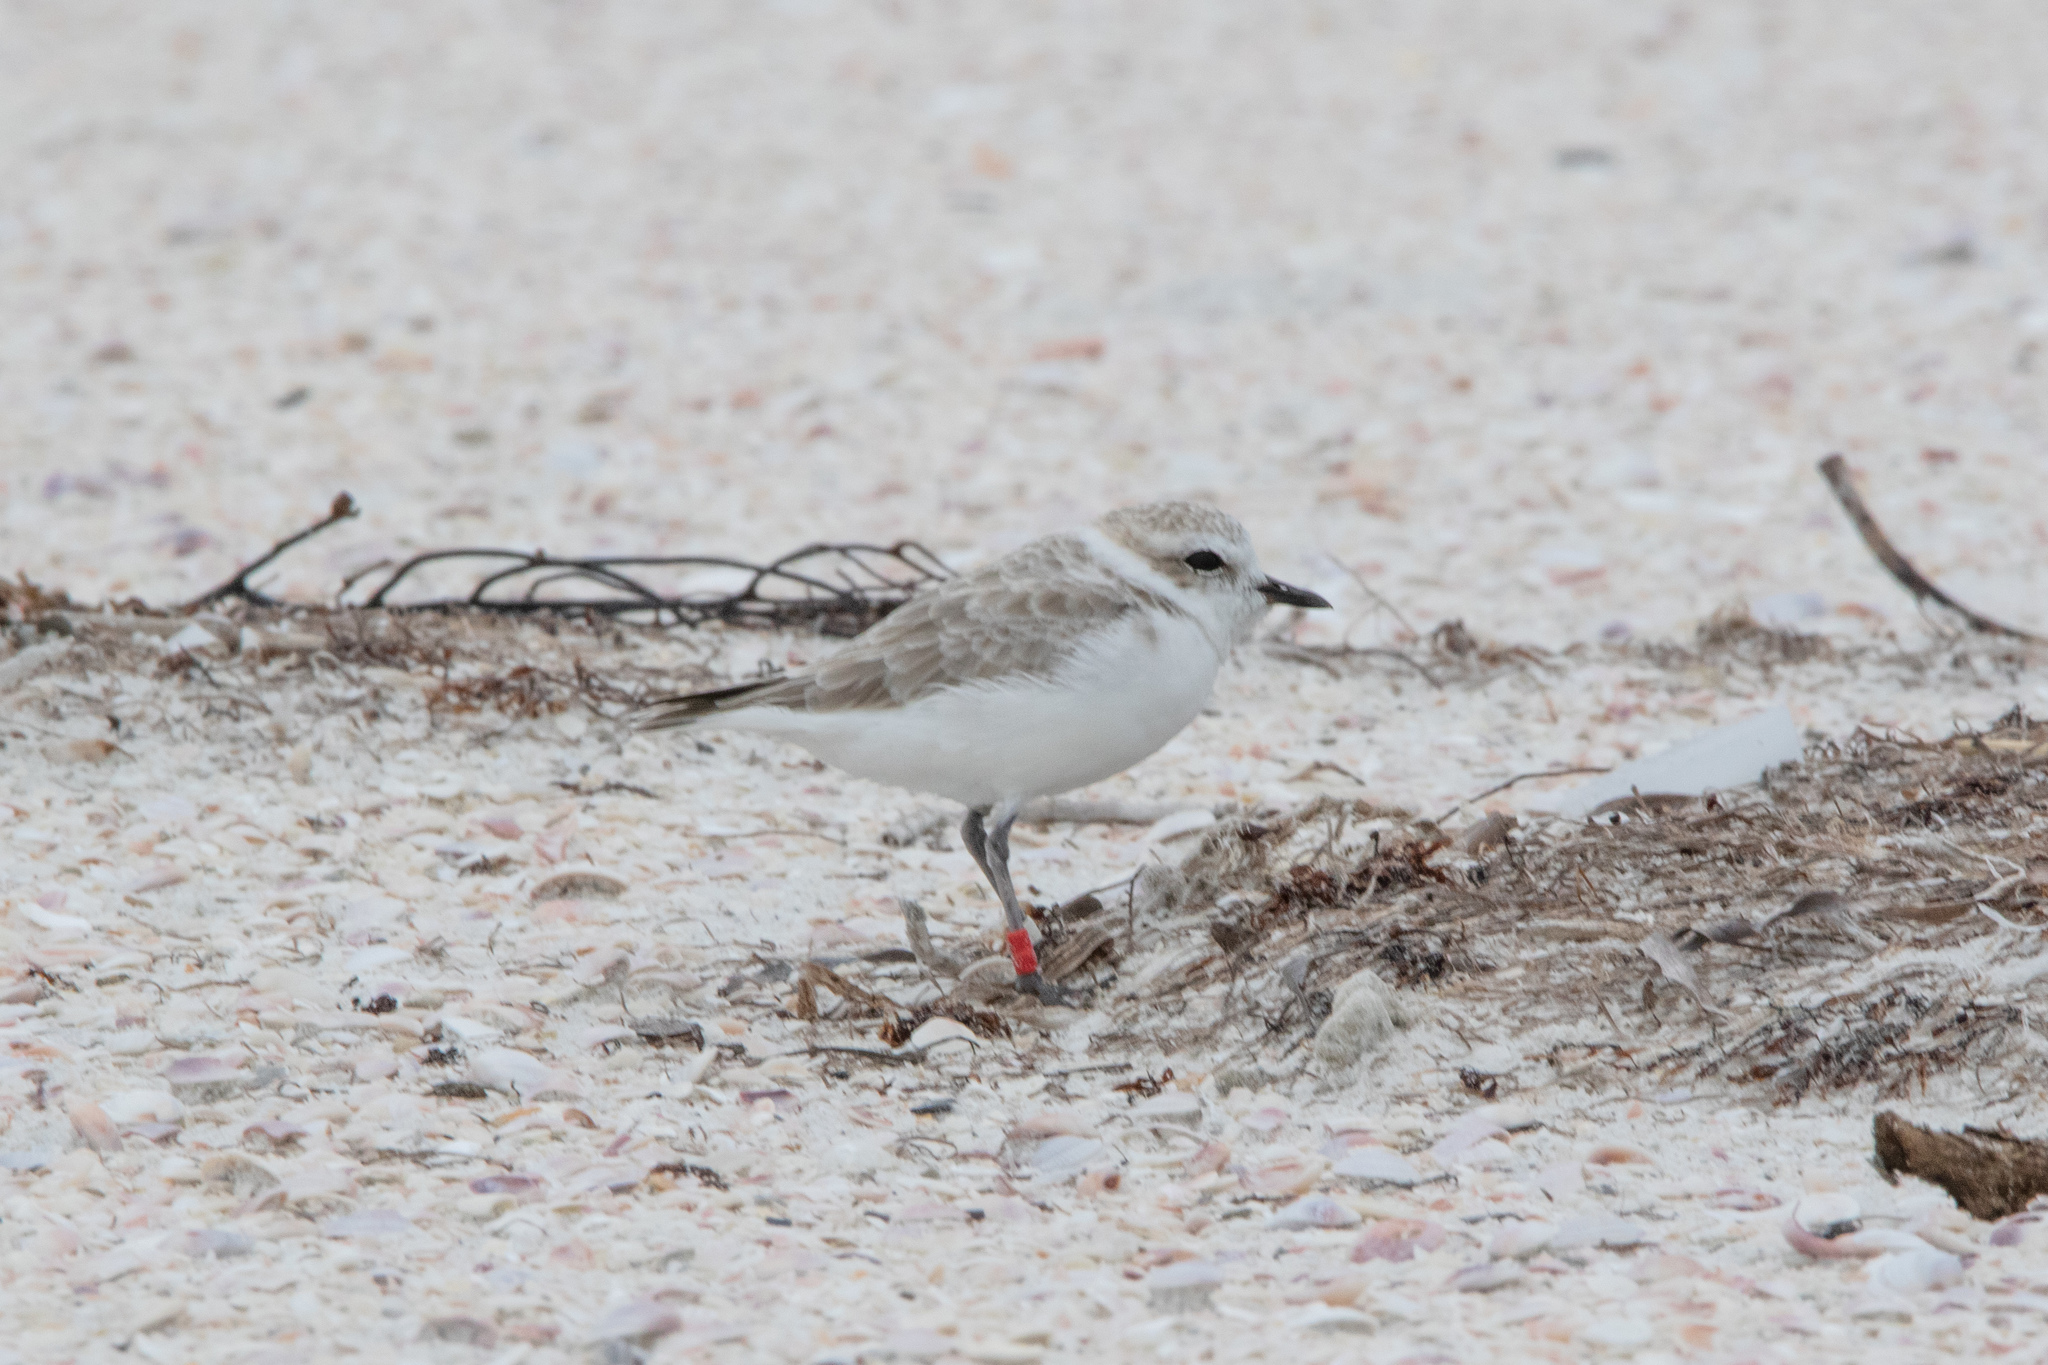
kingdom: Animalia
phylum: Chordata
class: Aves
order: Charadriiformes
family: Charadriidae
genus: Anarhynchus
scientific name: Anarhynchus
